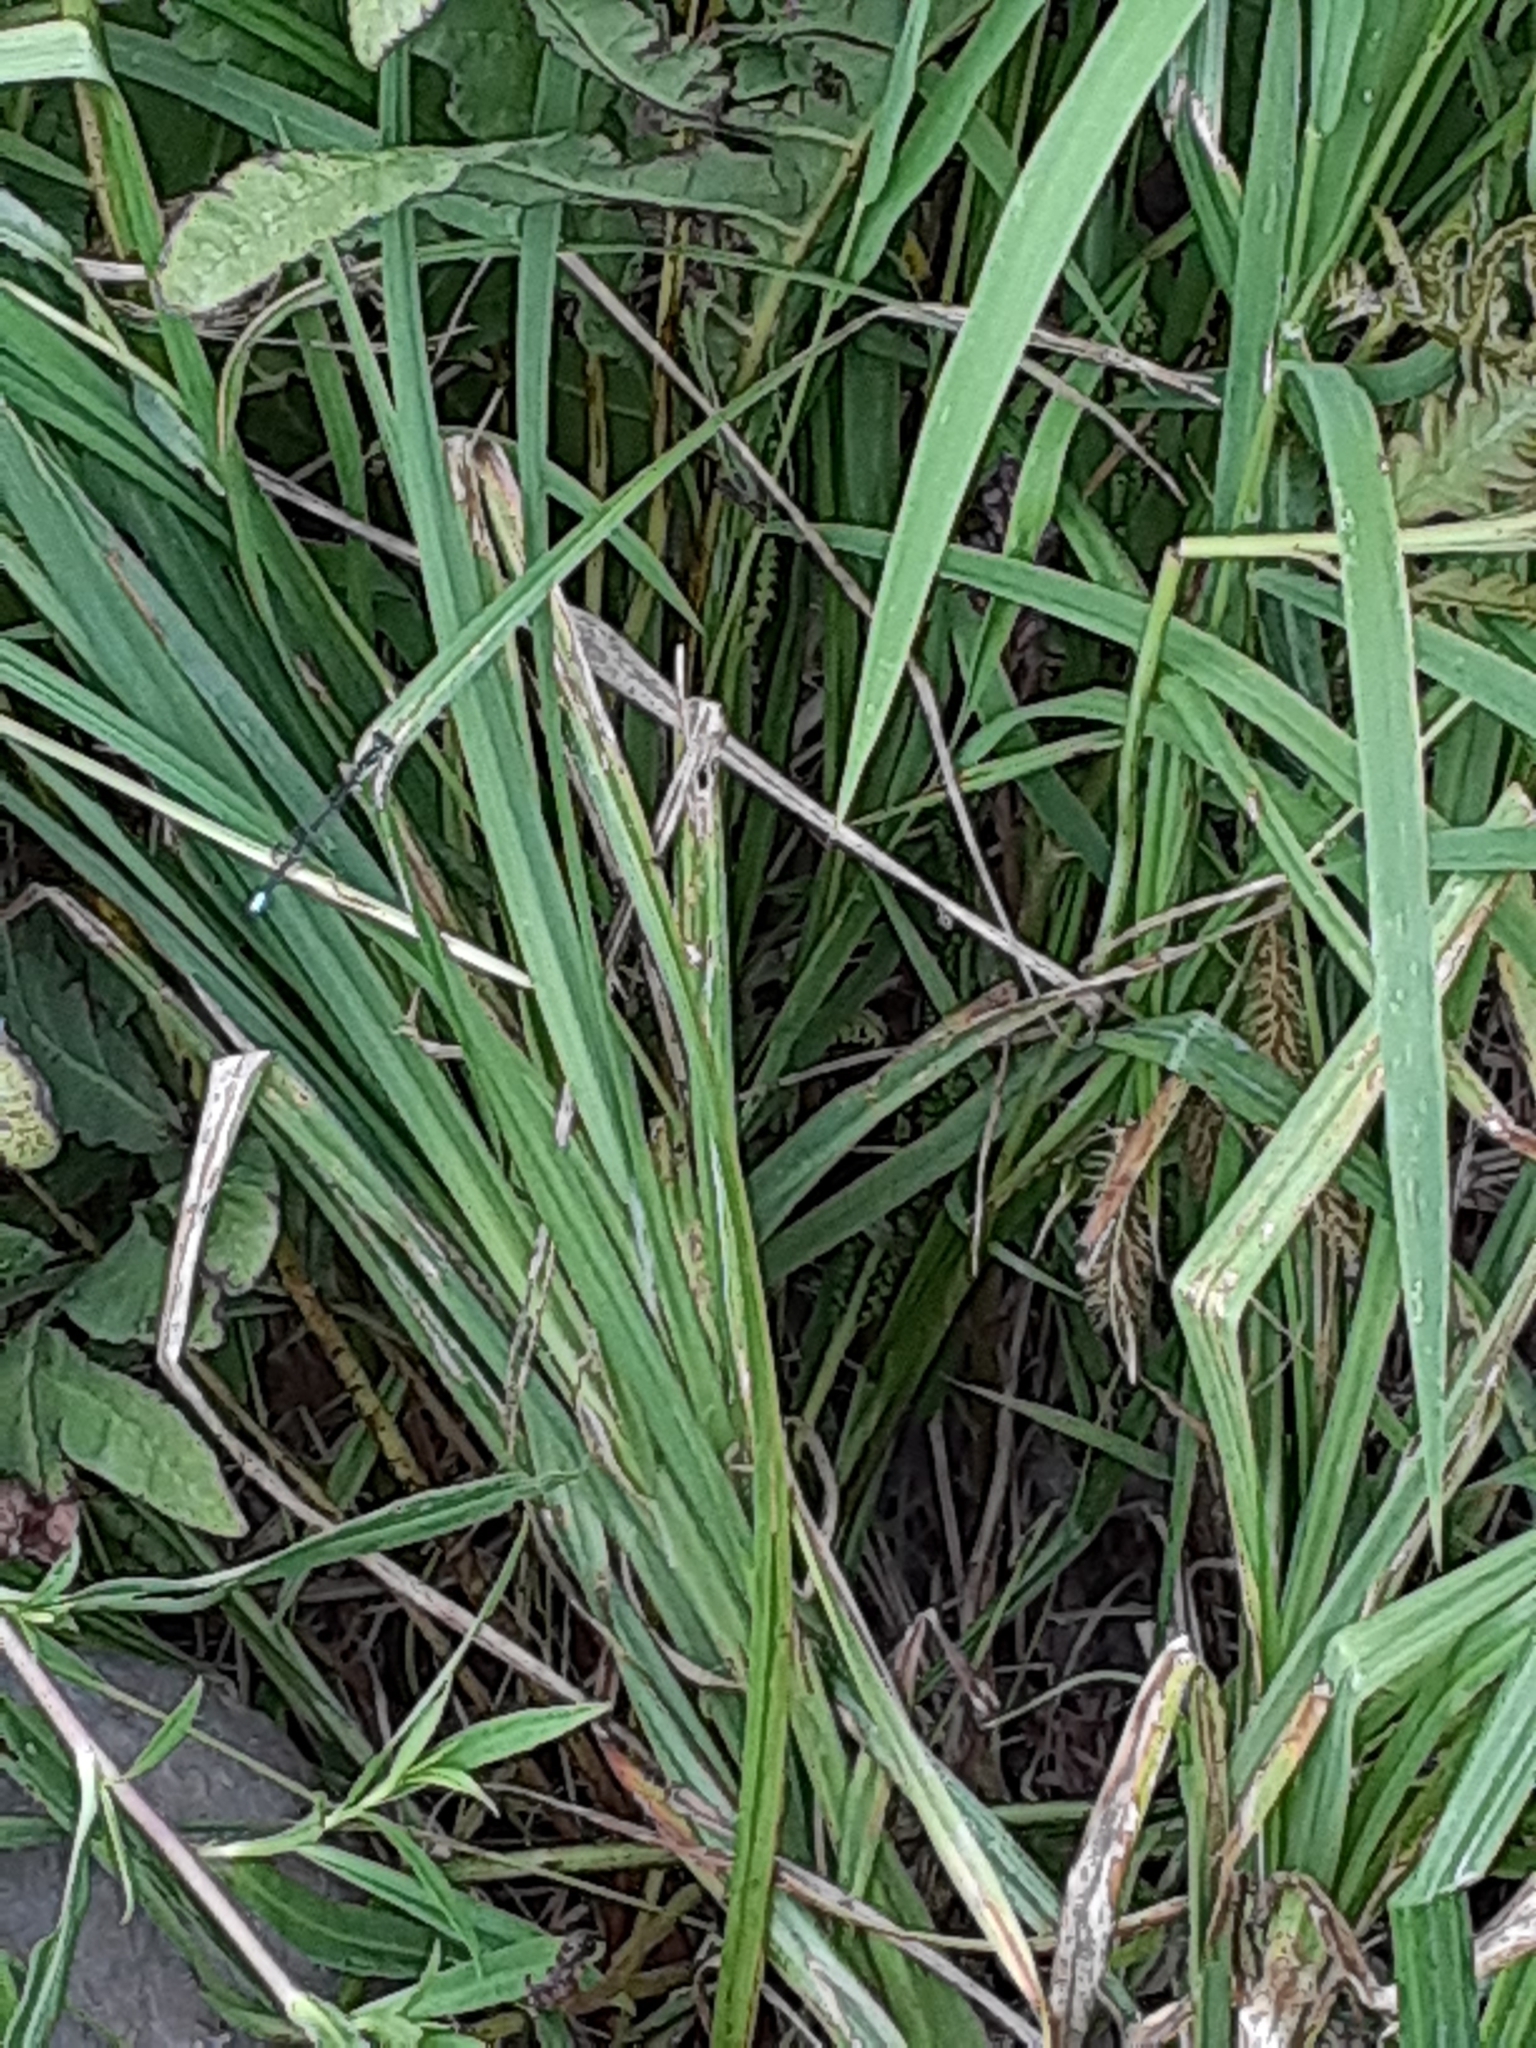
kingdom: Animalia
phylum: Arthropoda
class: Insecta
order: Odonata
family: Coenagrionidae
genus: Ischnura
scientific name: Ischnura verticalis
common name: Eastern forktail
